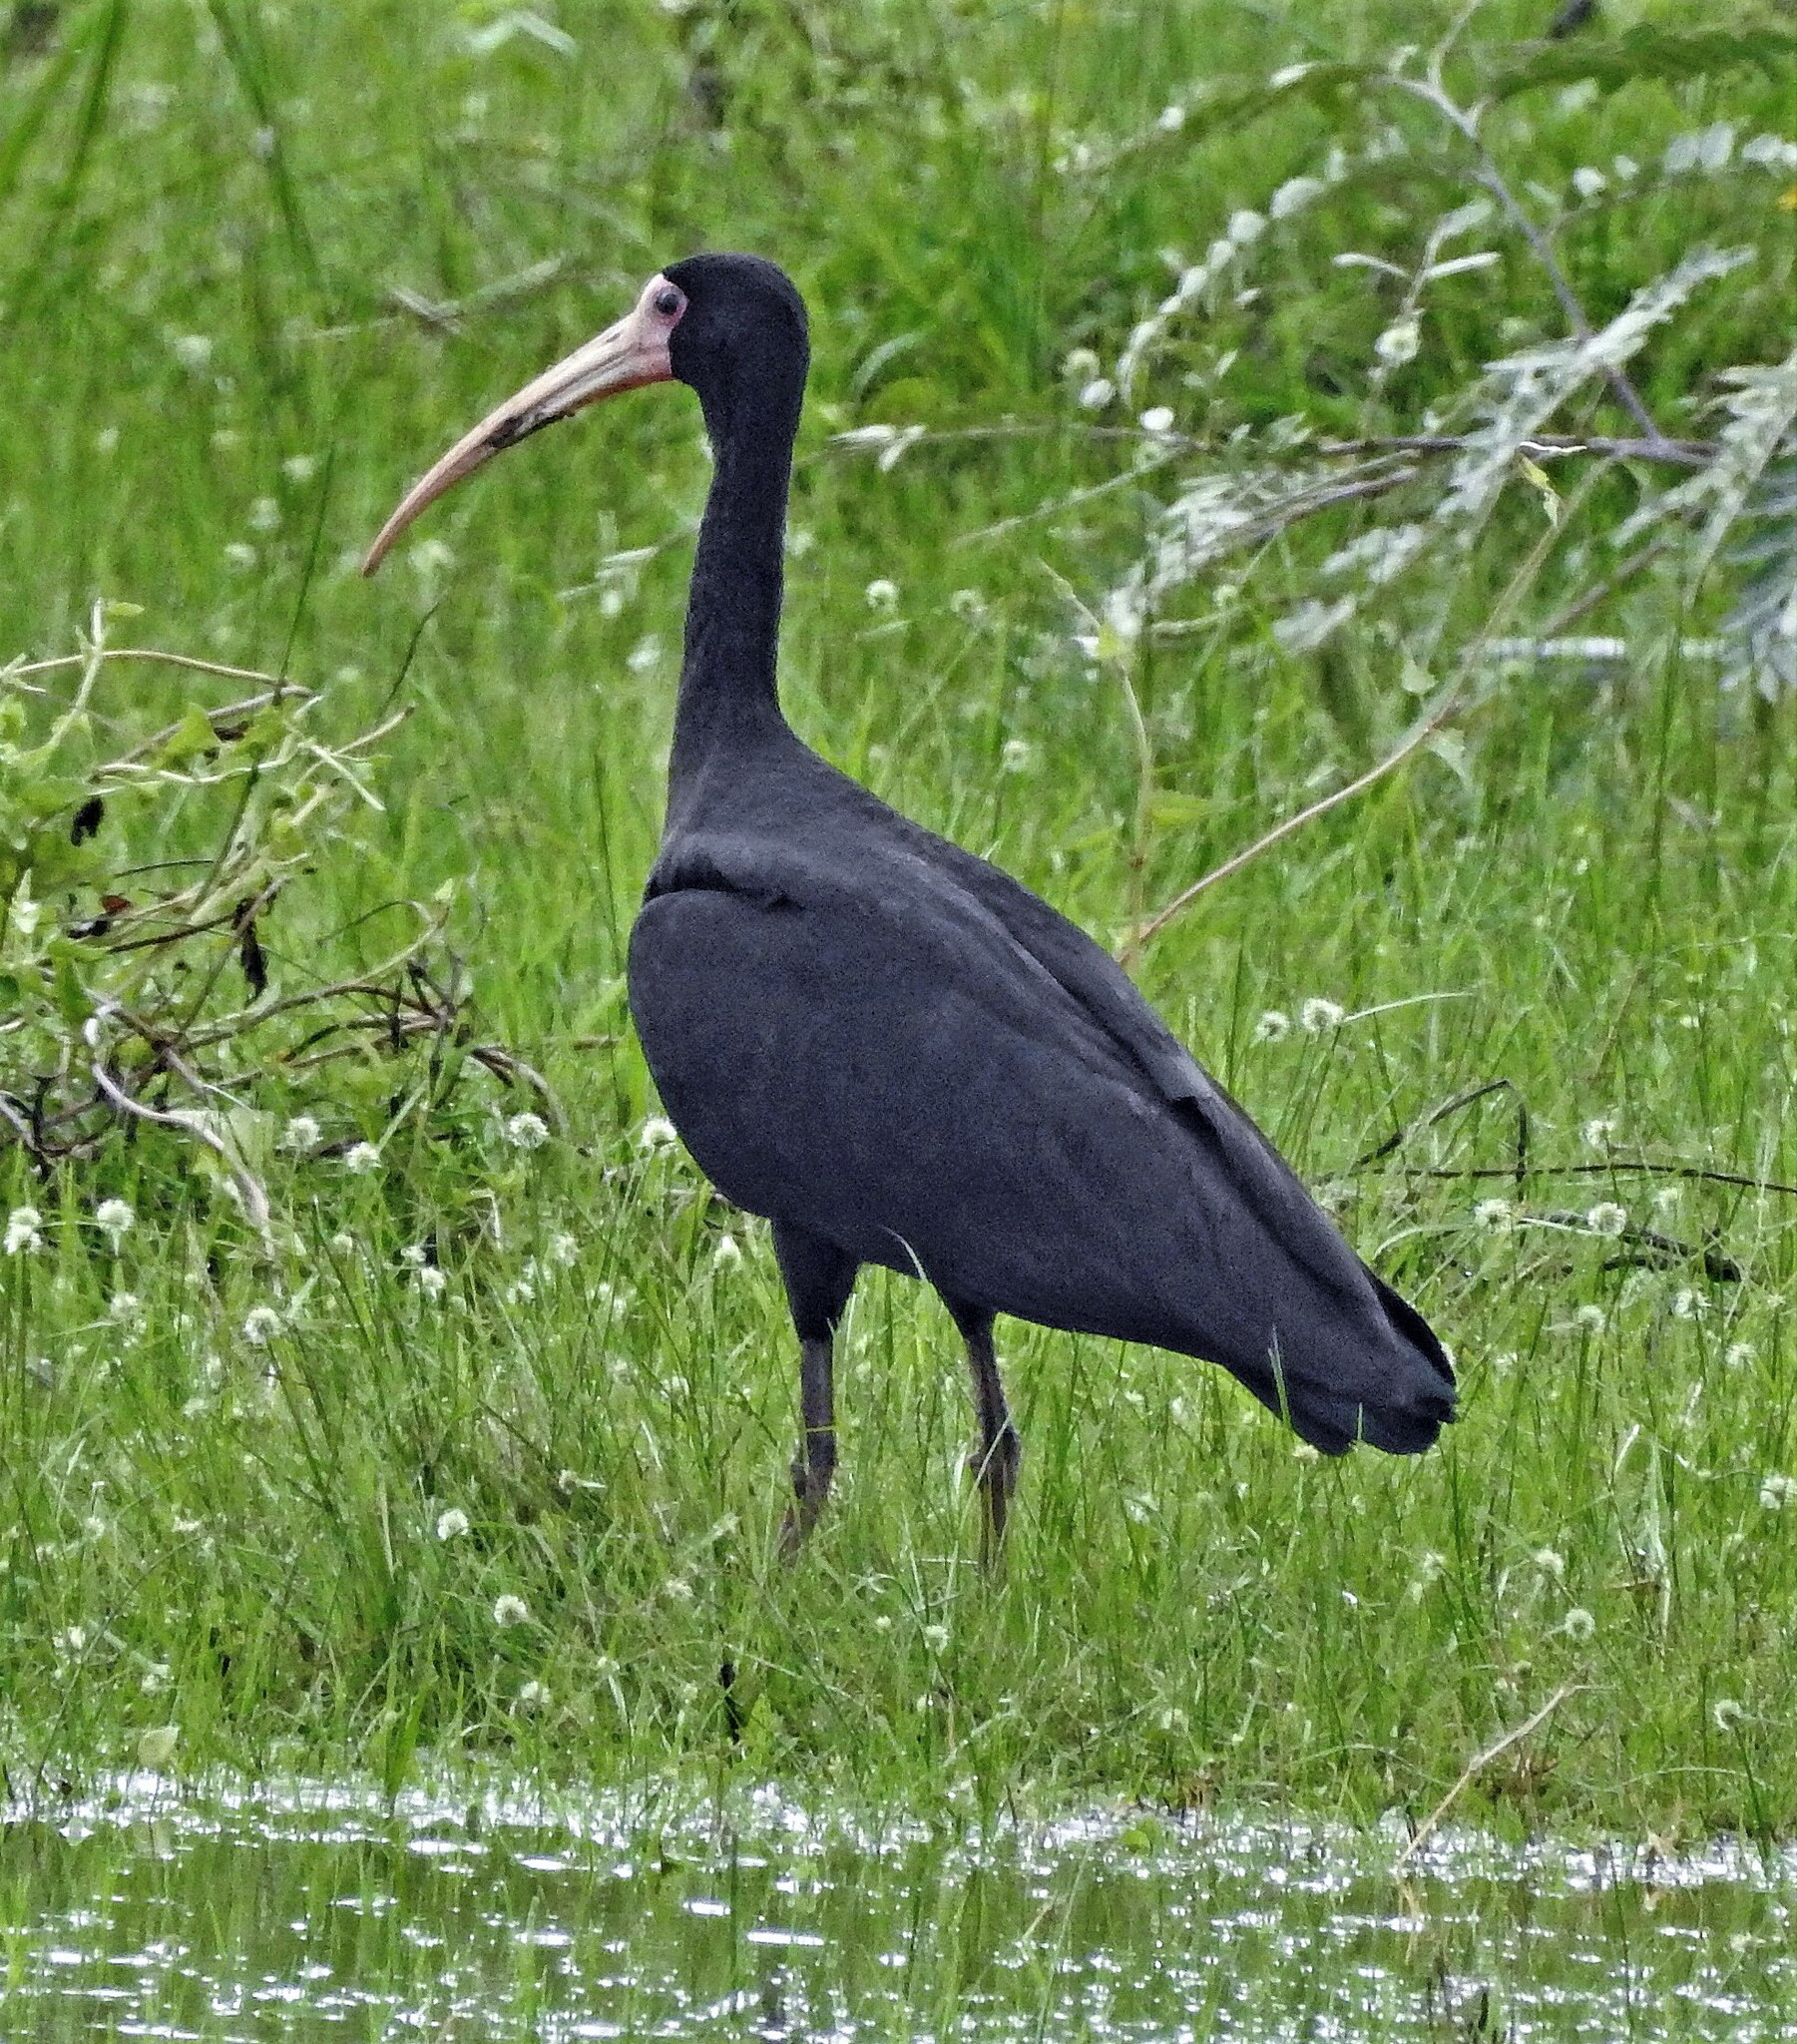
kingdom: Animalia
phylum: Chordata
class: Aves
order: Pelecaniformes
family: Threskiornithidae
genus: Phimosus
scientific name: Phimosus infuscatus
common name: Bare-faced ibis
